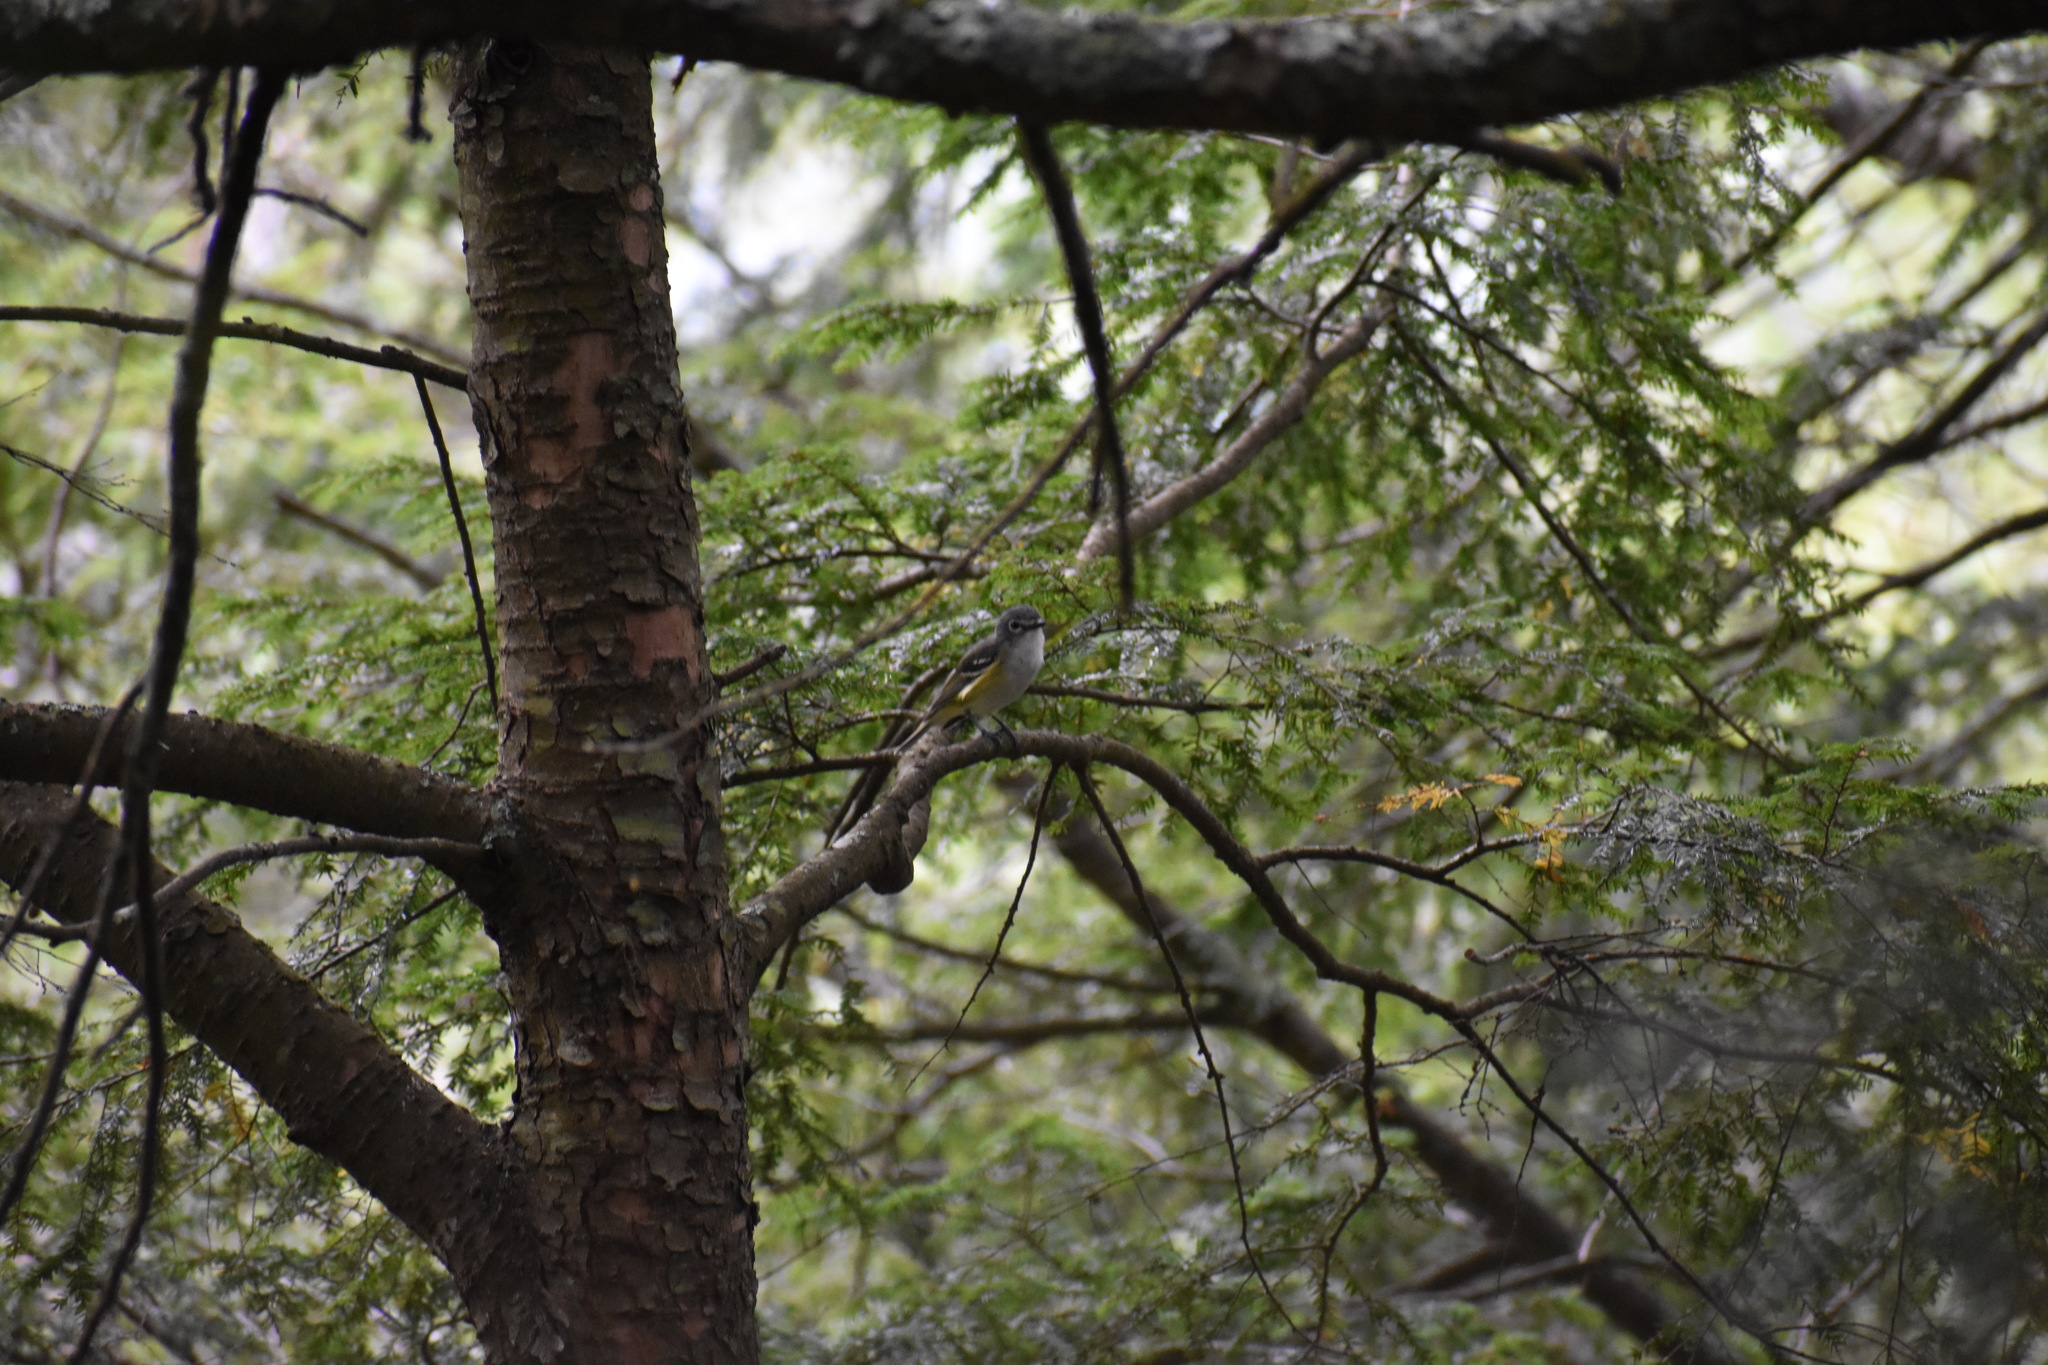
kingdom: Animalia
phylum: Chordata
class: Aves
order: Passeriformes
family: Vireonidae
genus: Vireo
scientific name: Vireo solitarius
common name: Blue-headed vireo
